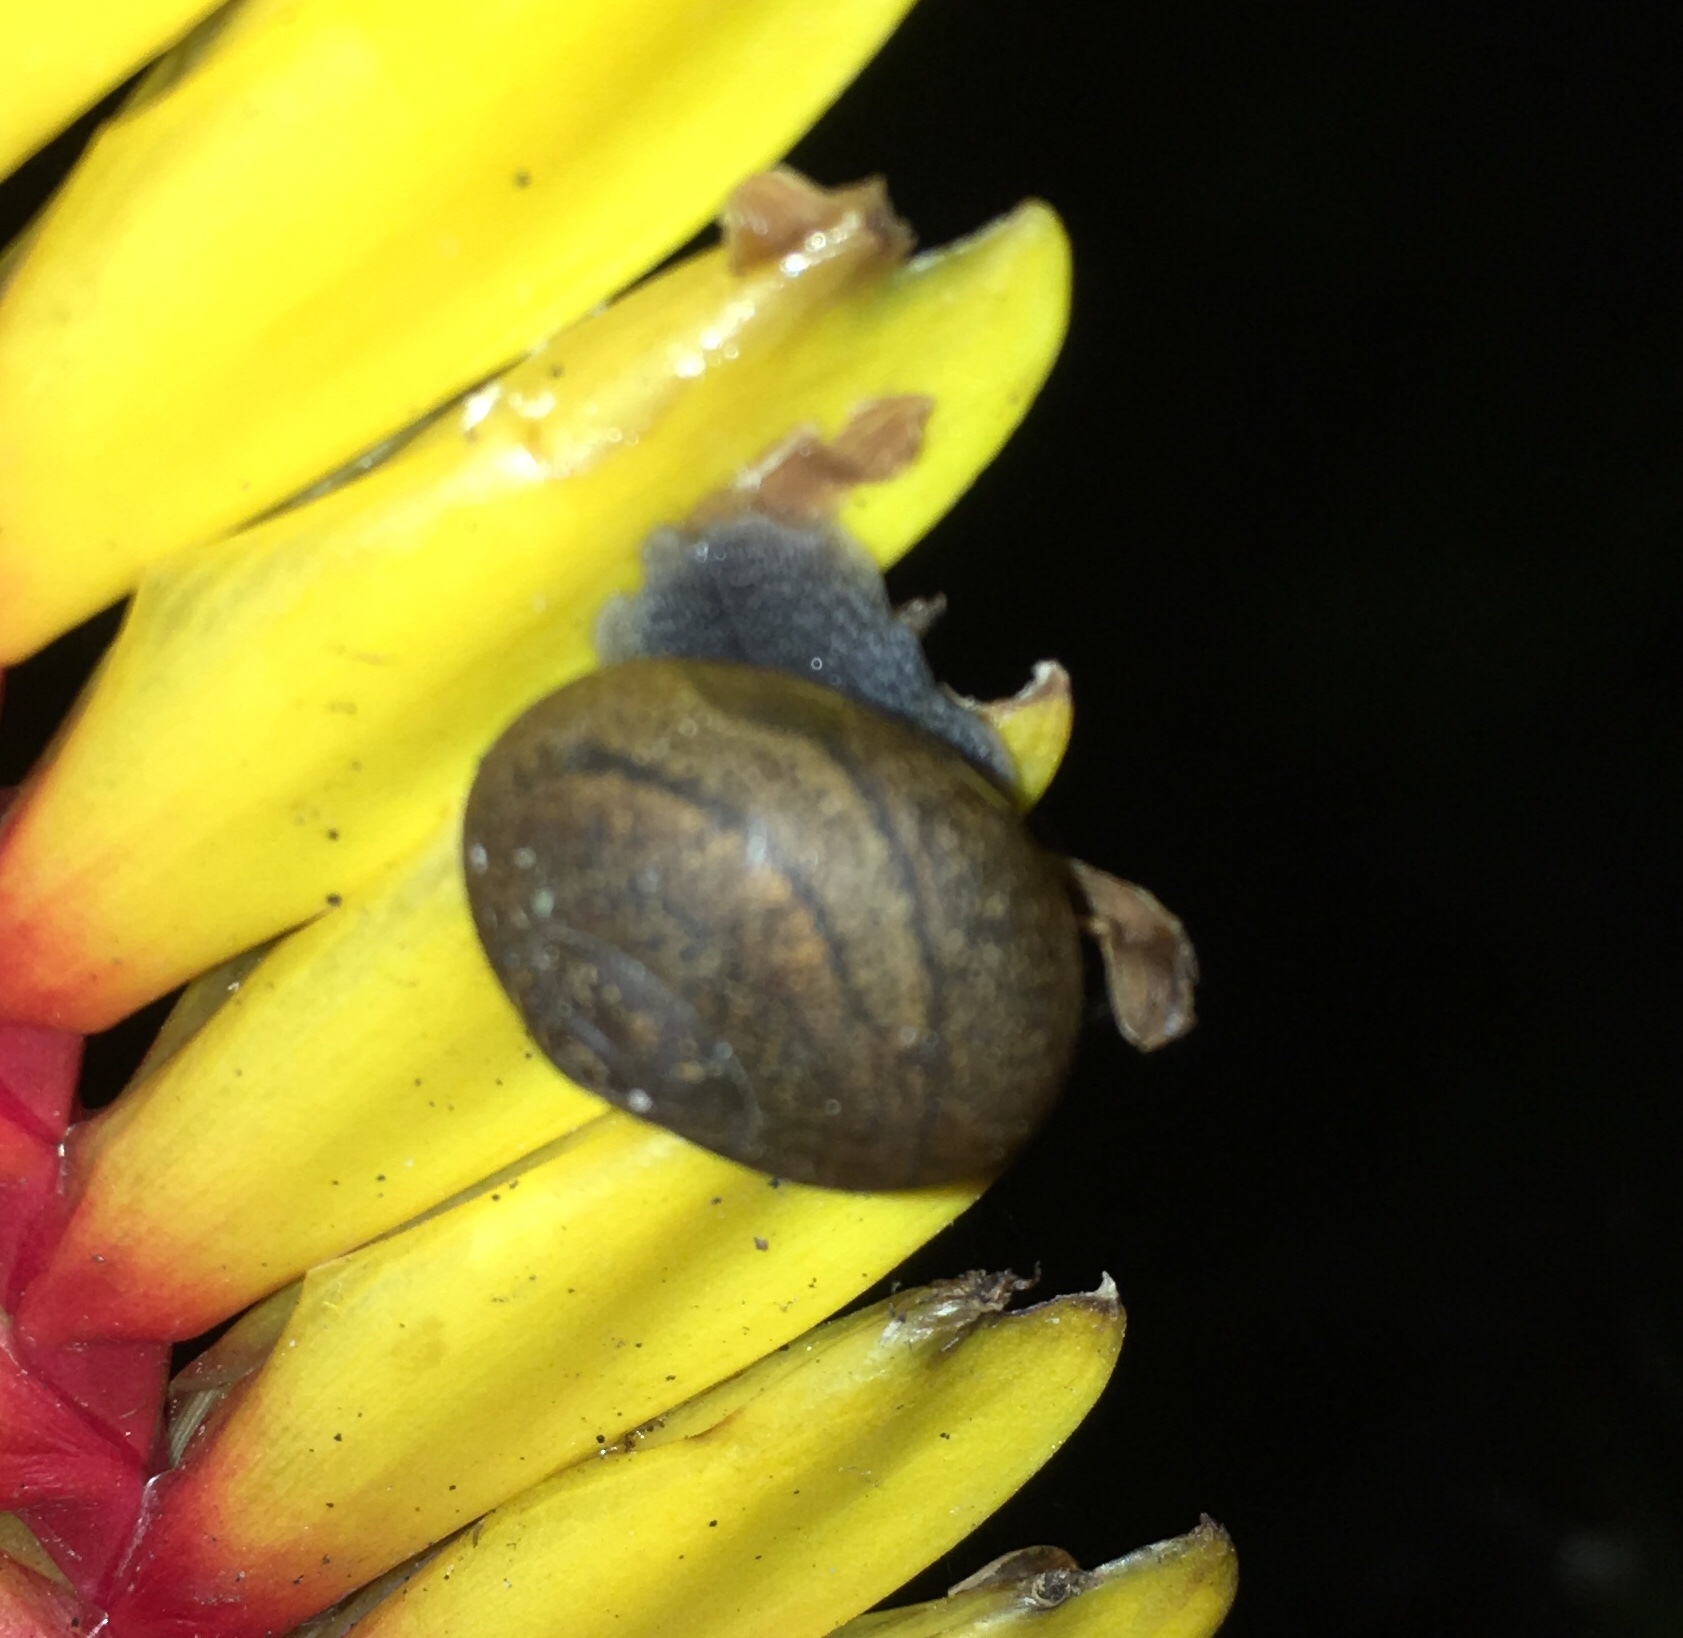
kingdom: Animalia
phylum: Mollusca
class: Gastropoda
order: Stylommatophora
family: Zachrysiidae
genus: Zachrysia
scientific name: Zachrysia provisoria
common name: Garden zachrysia
